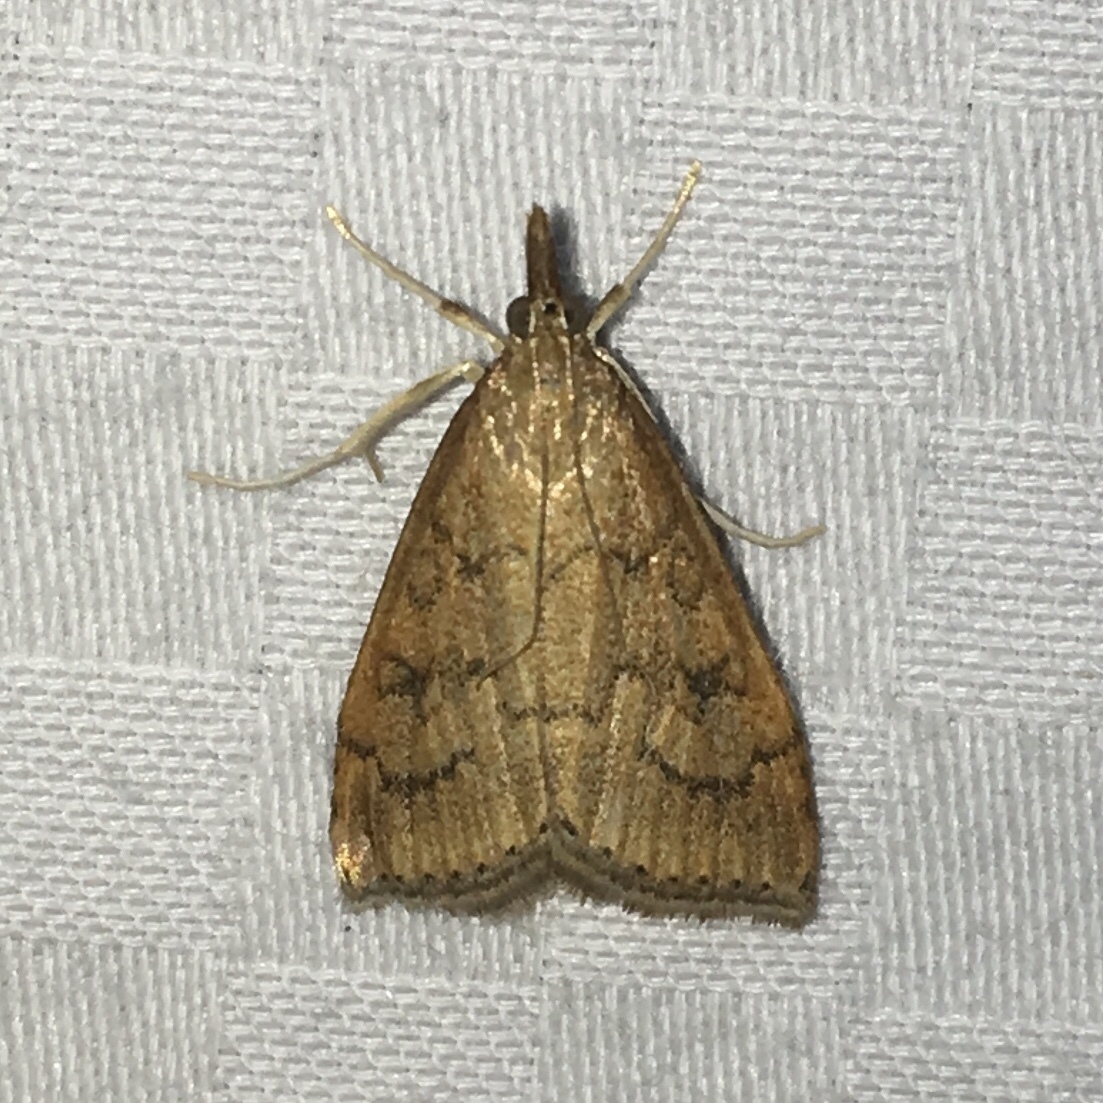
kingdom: Animalia
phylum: Arthropoda
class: Insecta
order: Lepidoptera
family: Crambidae
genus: Udea
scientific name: Udea rubigalis
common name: Celery leaftier moth
